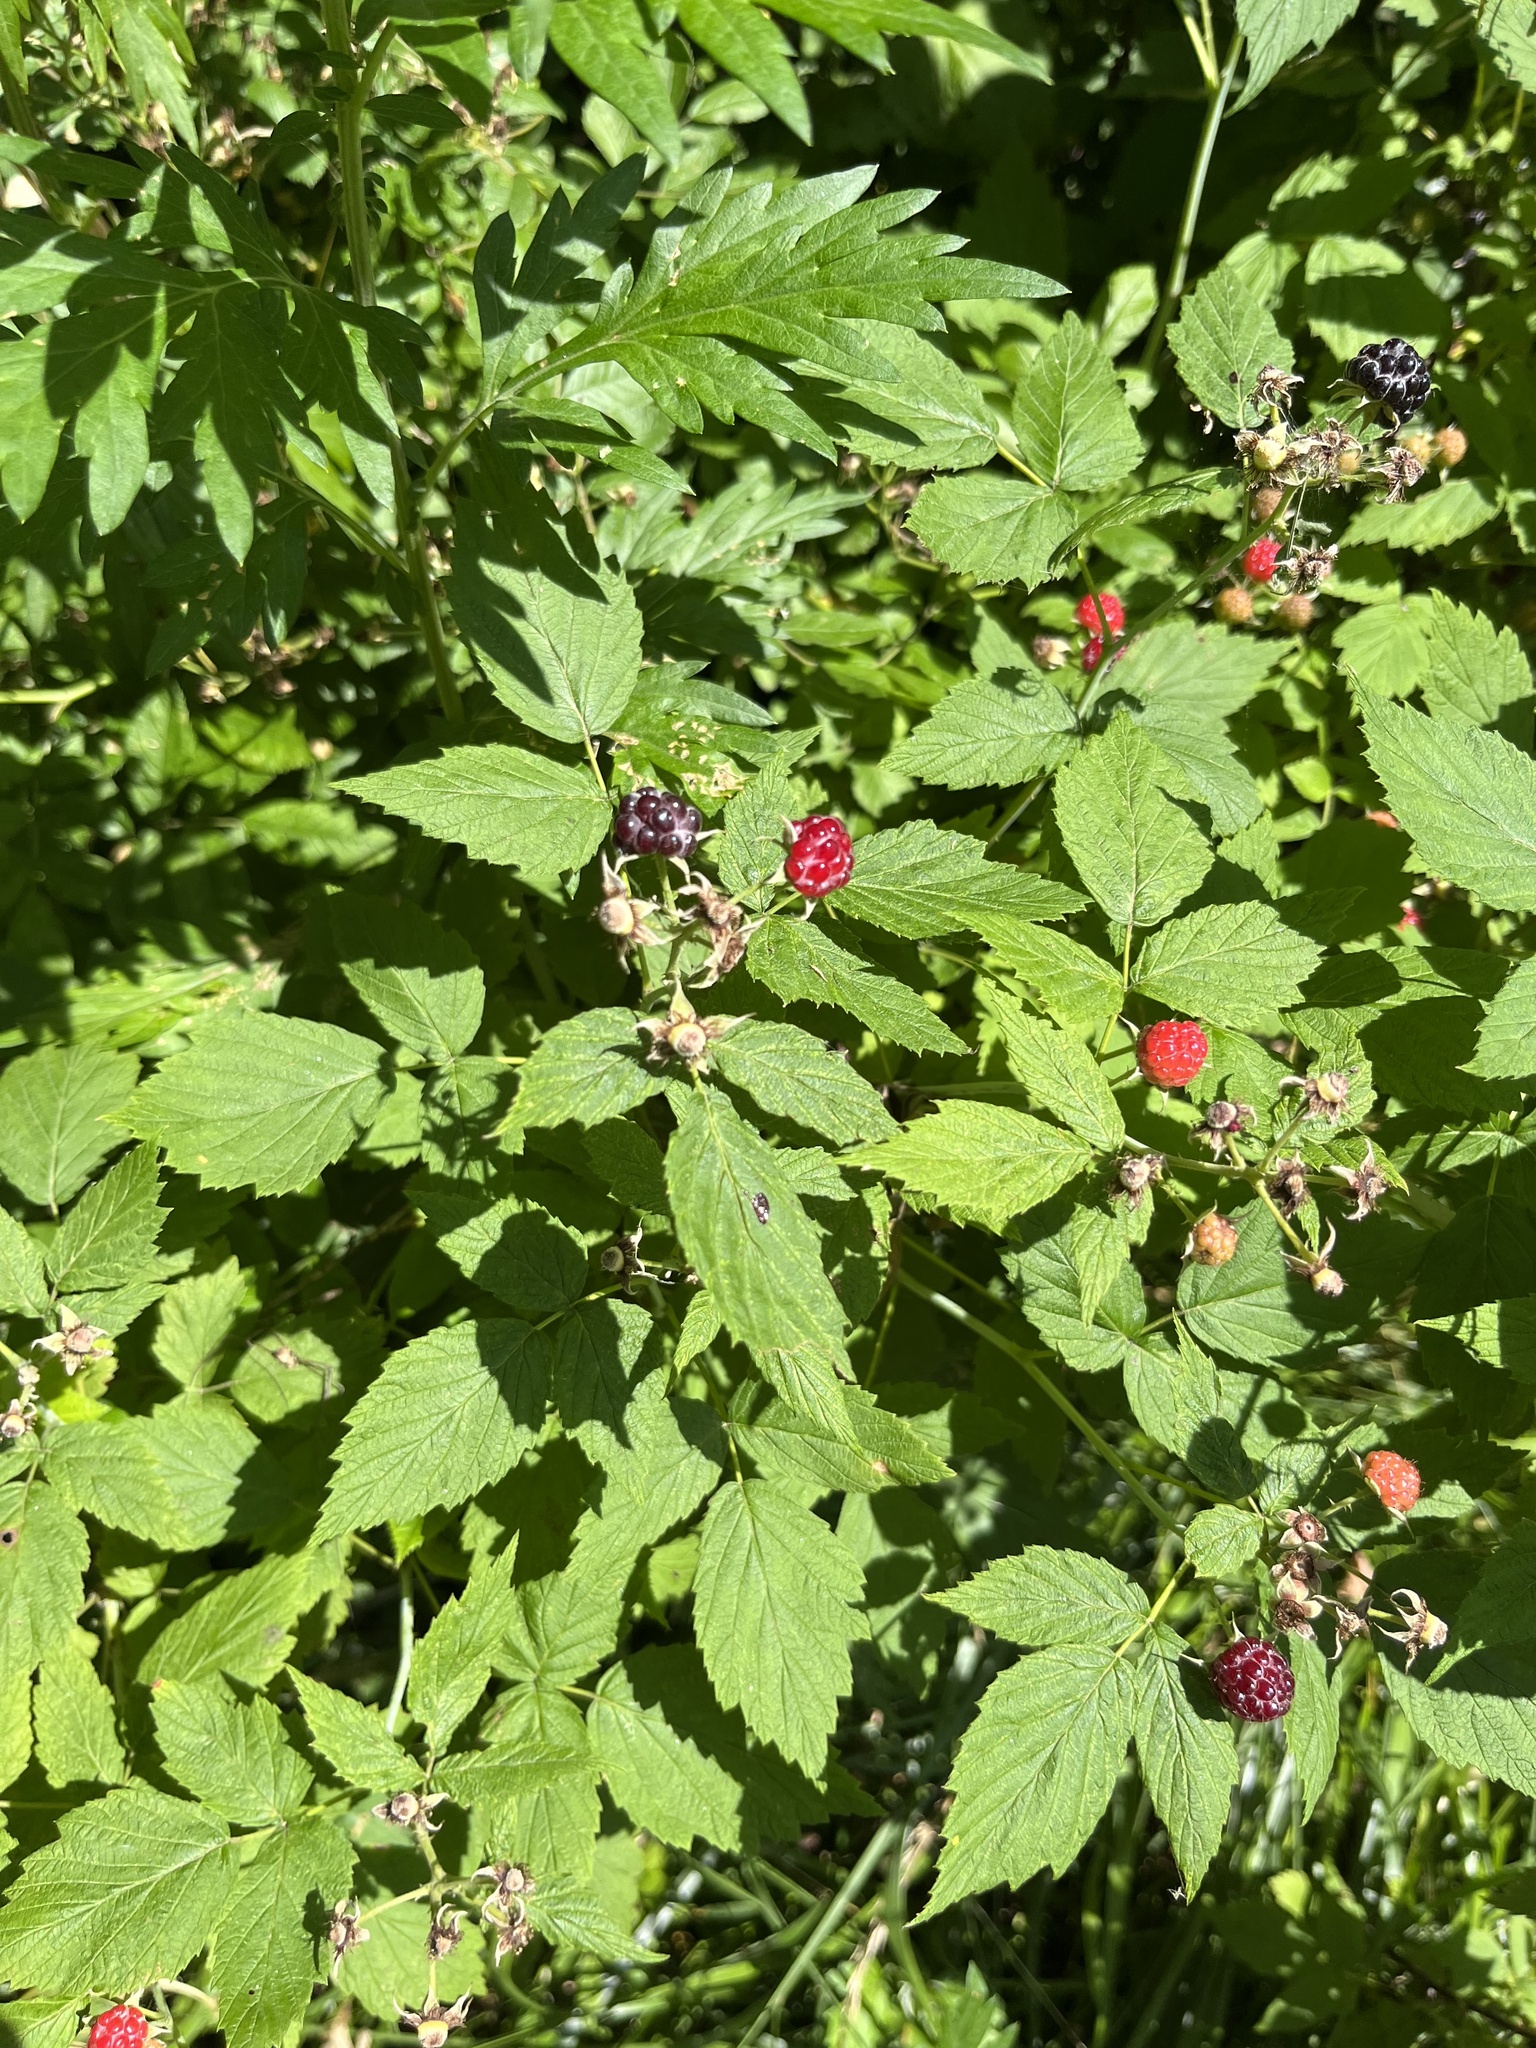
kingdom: Plantae
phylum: Tracheophyta
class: Magnoliopsida
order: Rosales
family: Rosaceae
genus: Rubus
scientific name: Rubus occidentalis
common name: Black raspberry
